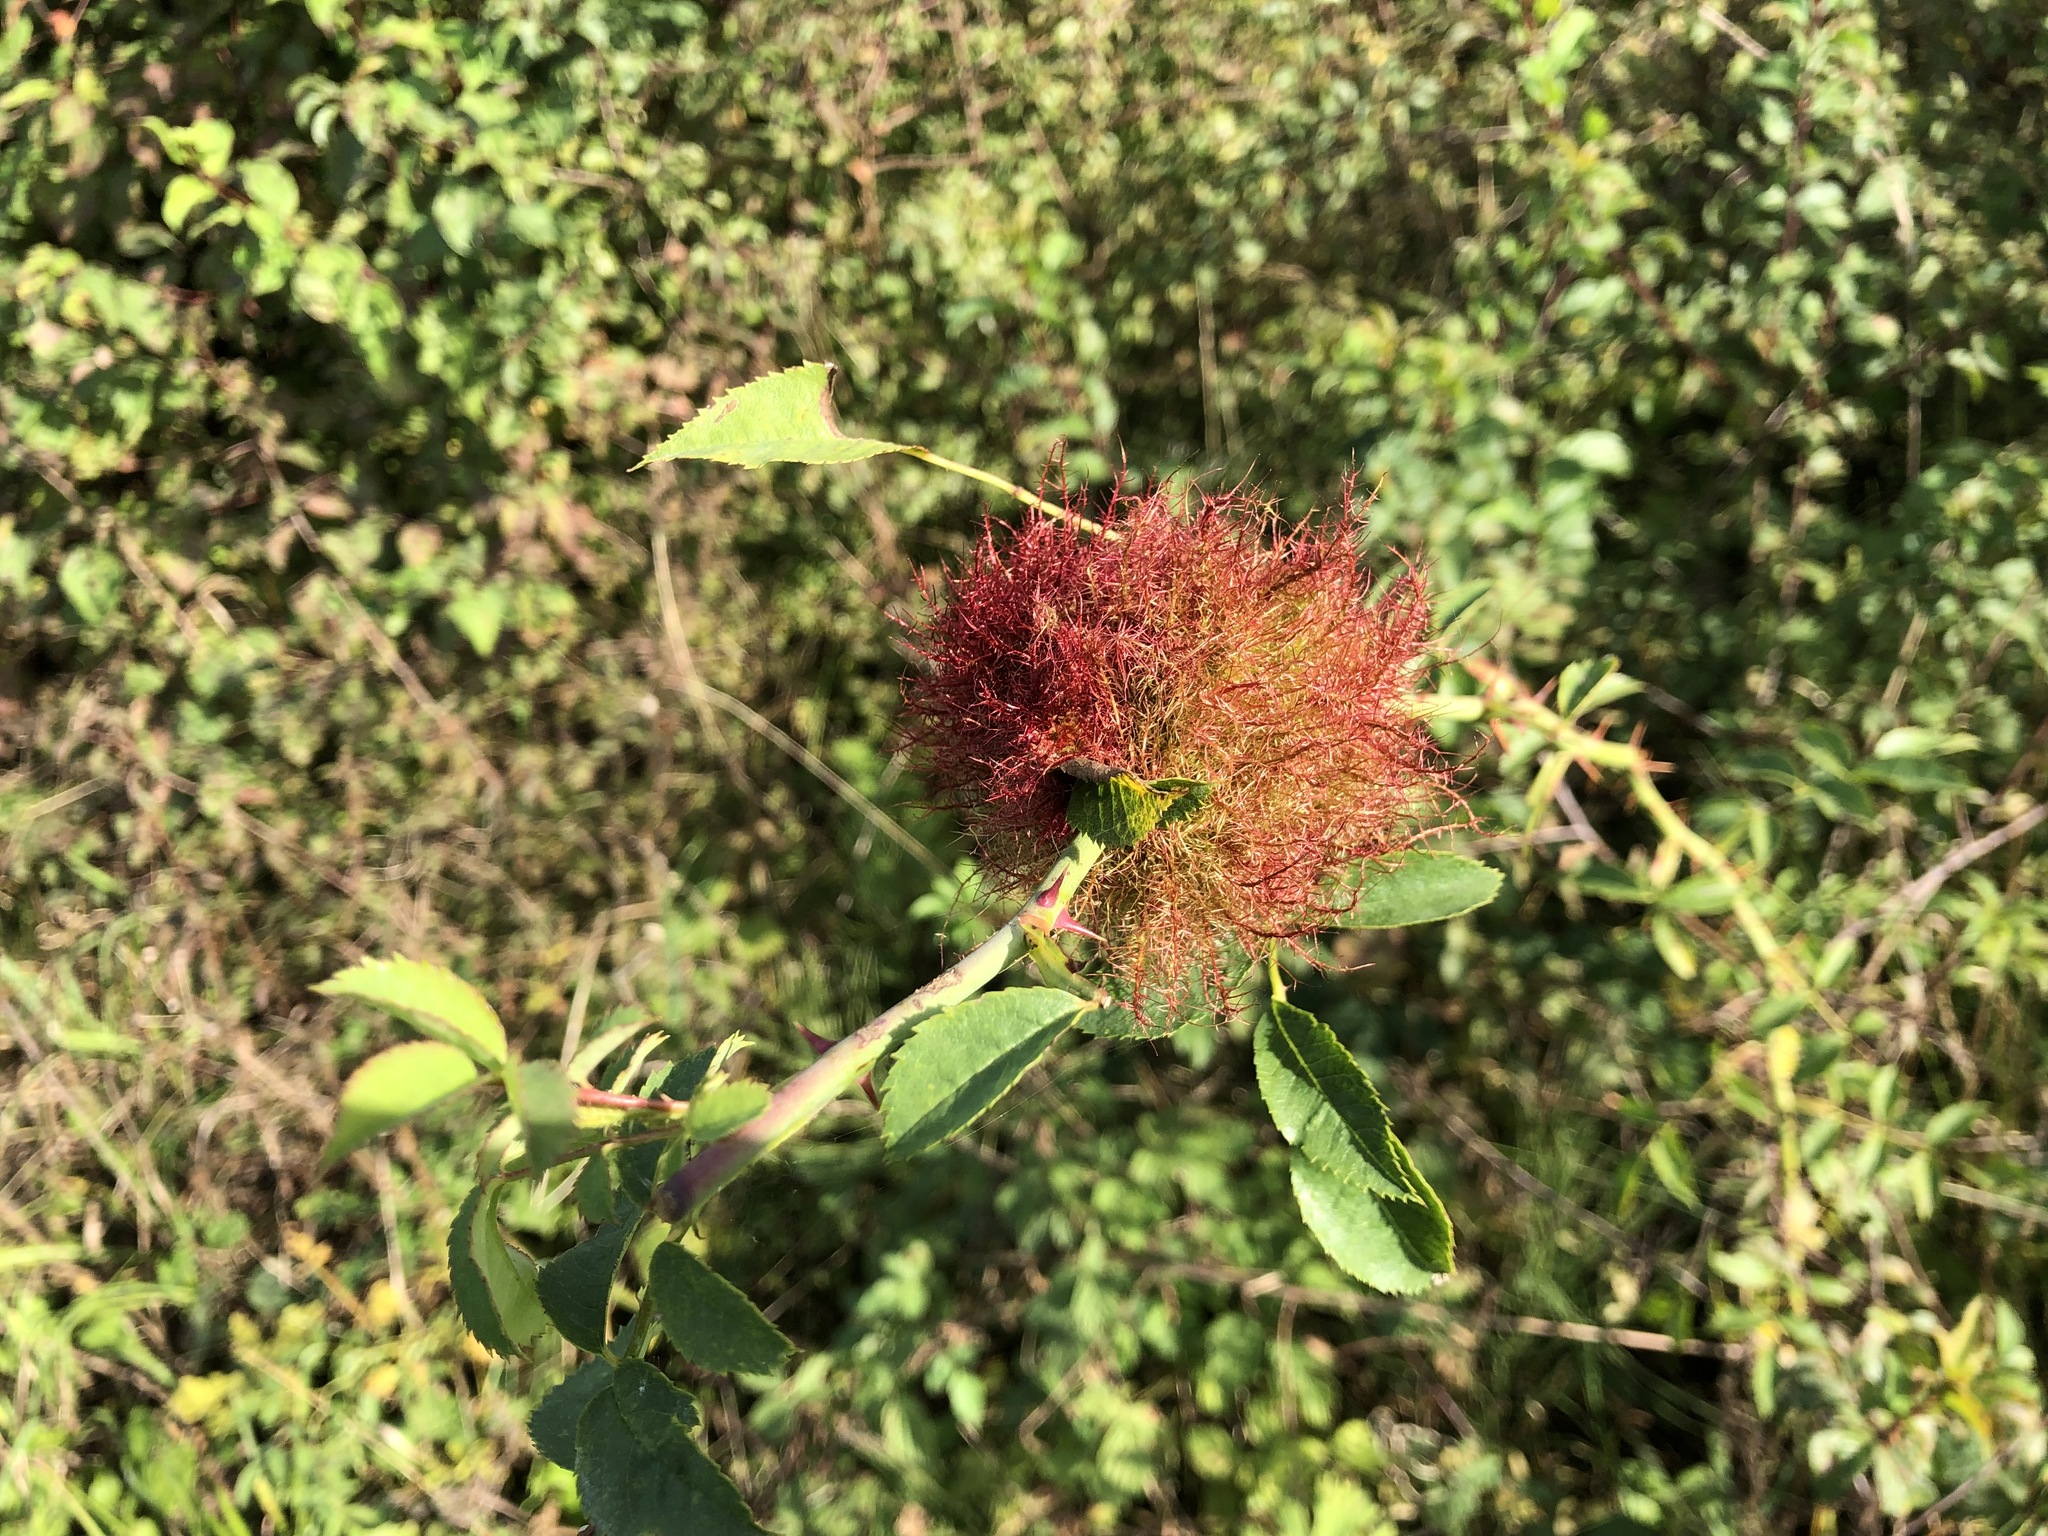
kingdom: Animalia
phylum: Arthropoda
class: Insecta
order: Hymenoptera
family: Cynipidae
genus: Diplolepis
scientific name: Diplolepis rosae
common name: Bedeguar gall
